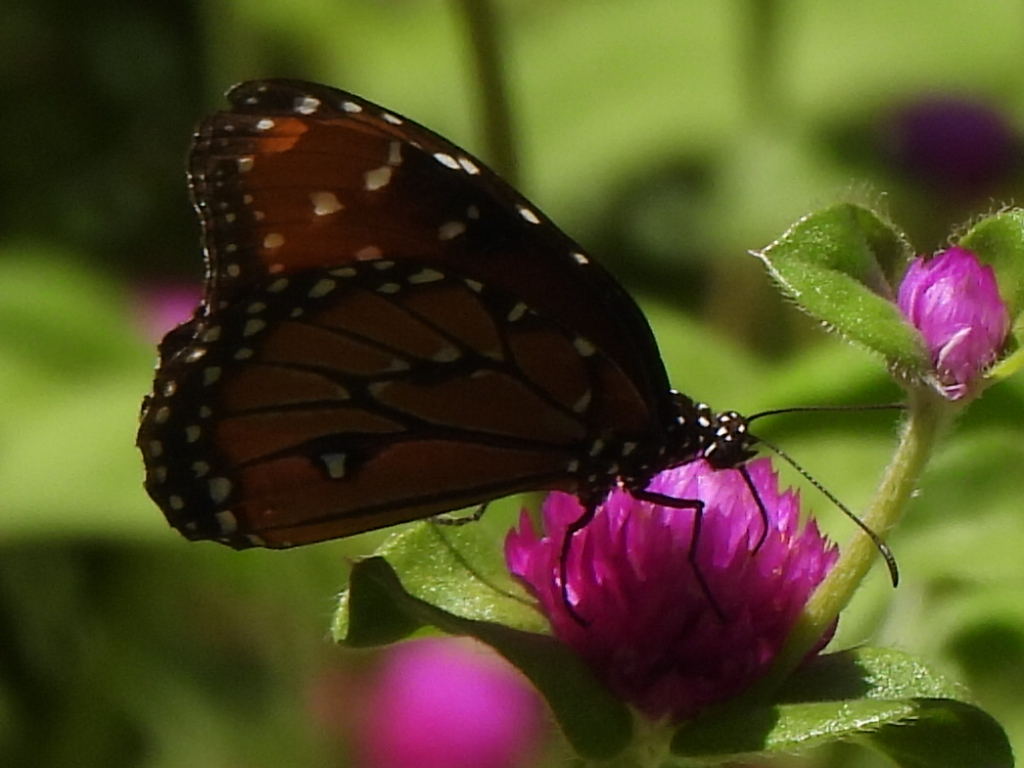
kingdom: Animalia
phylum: Arthropoda
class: Insecta
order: Lepidoptera
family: Nymphalidae
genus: Danaus
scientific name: Danaus gilippus
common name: Queen
